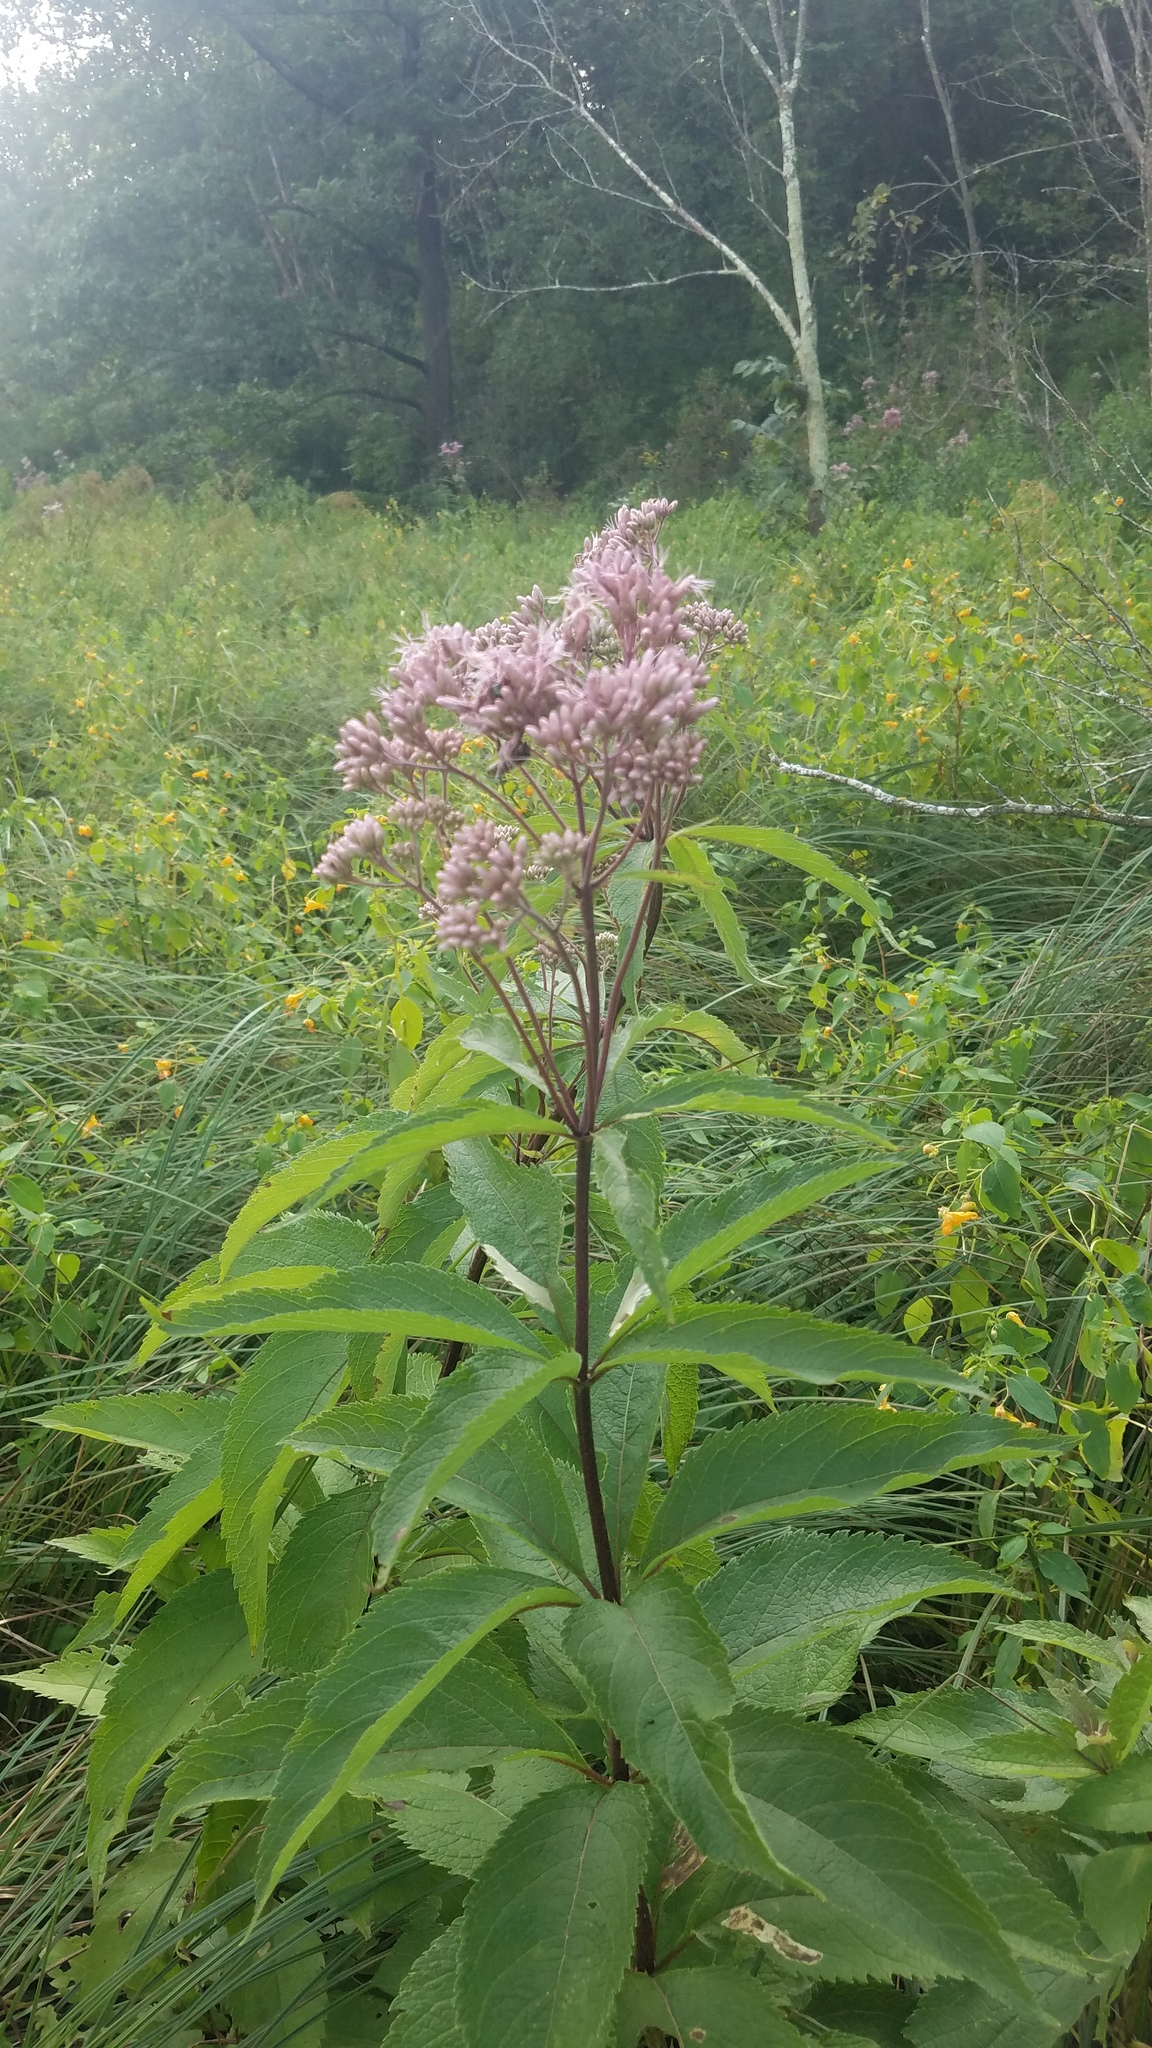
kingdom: Plantae
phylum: Tracheophyta
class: Magnoliopsida
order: Asterales
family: Asteraceae
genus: Eutrochium
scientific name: Eutrochium maculatum
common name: Spotted joe pye weed
